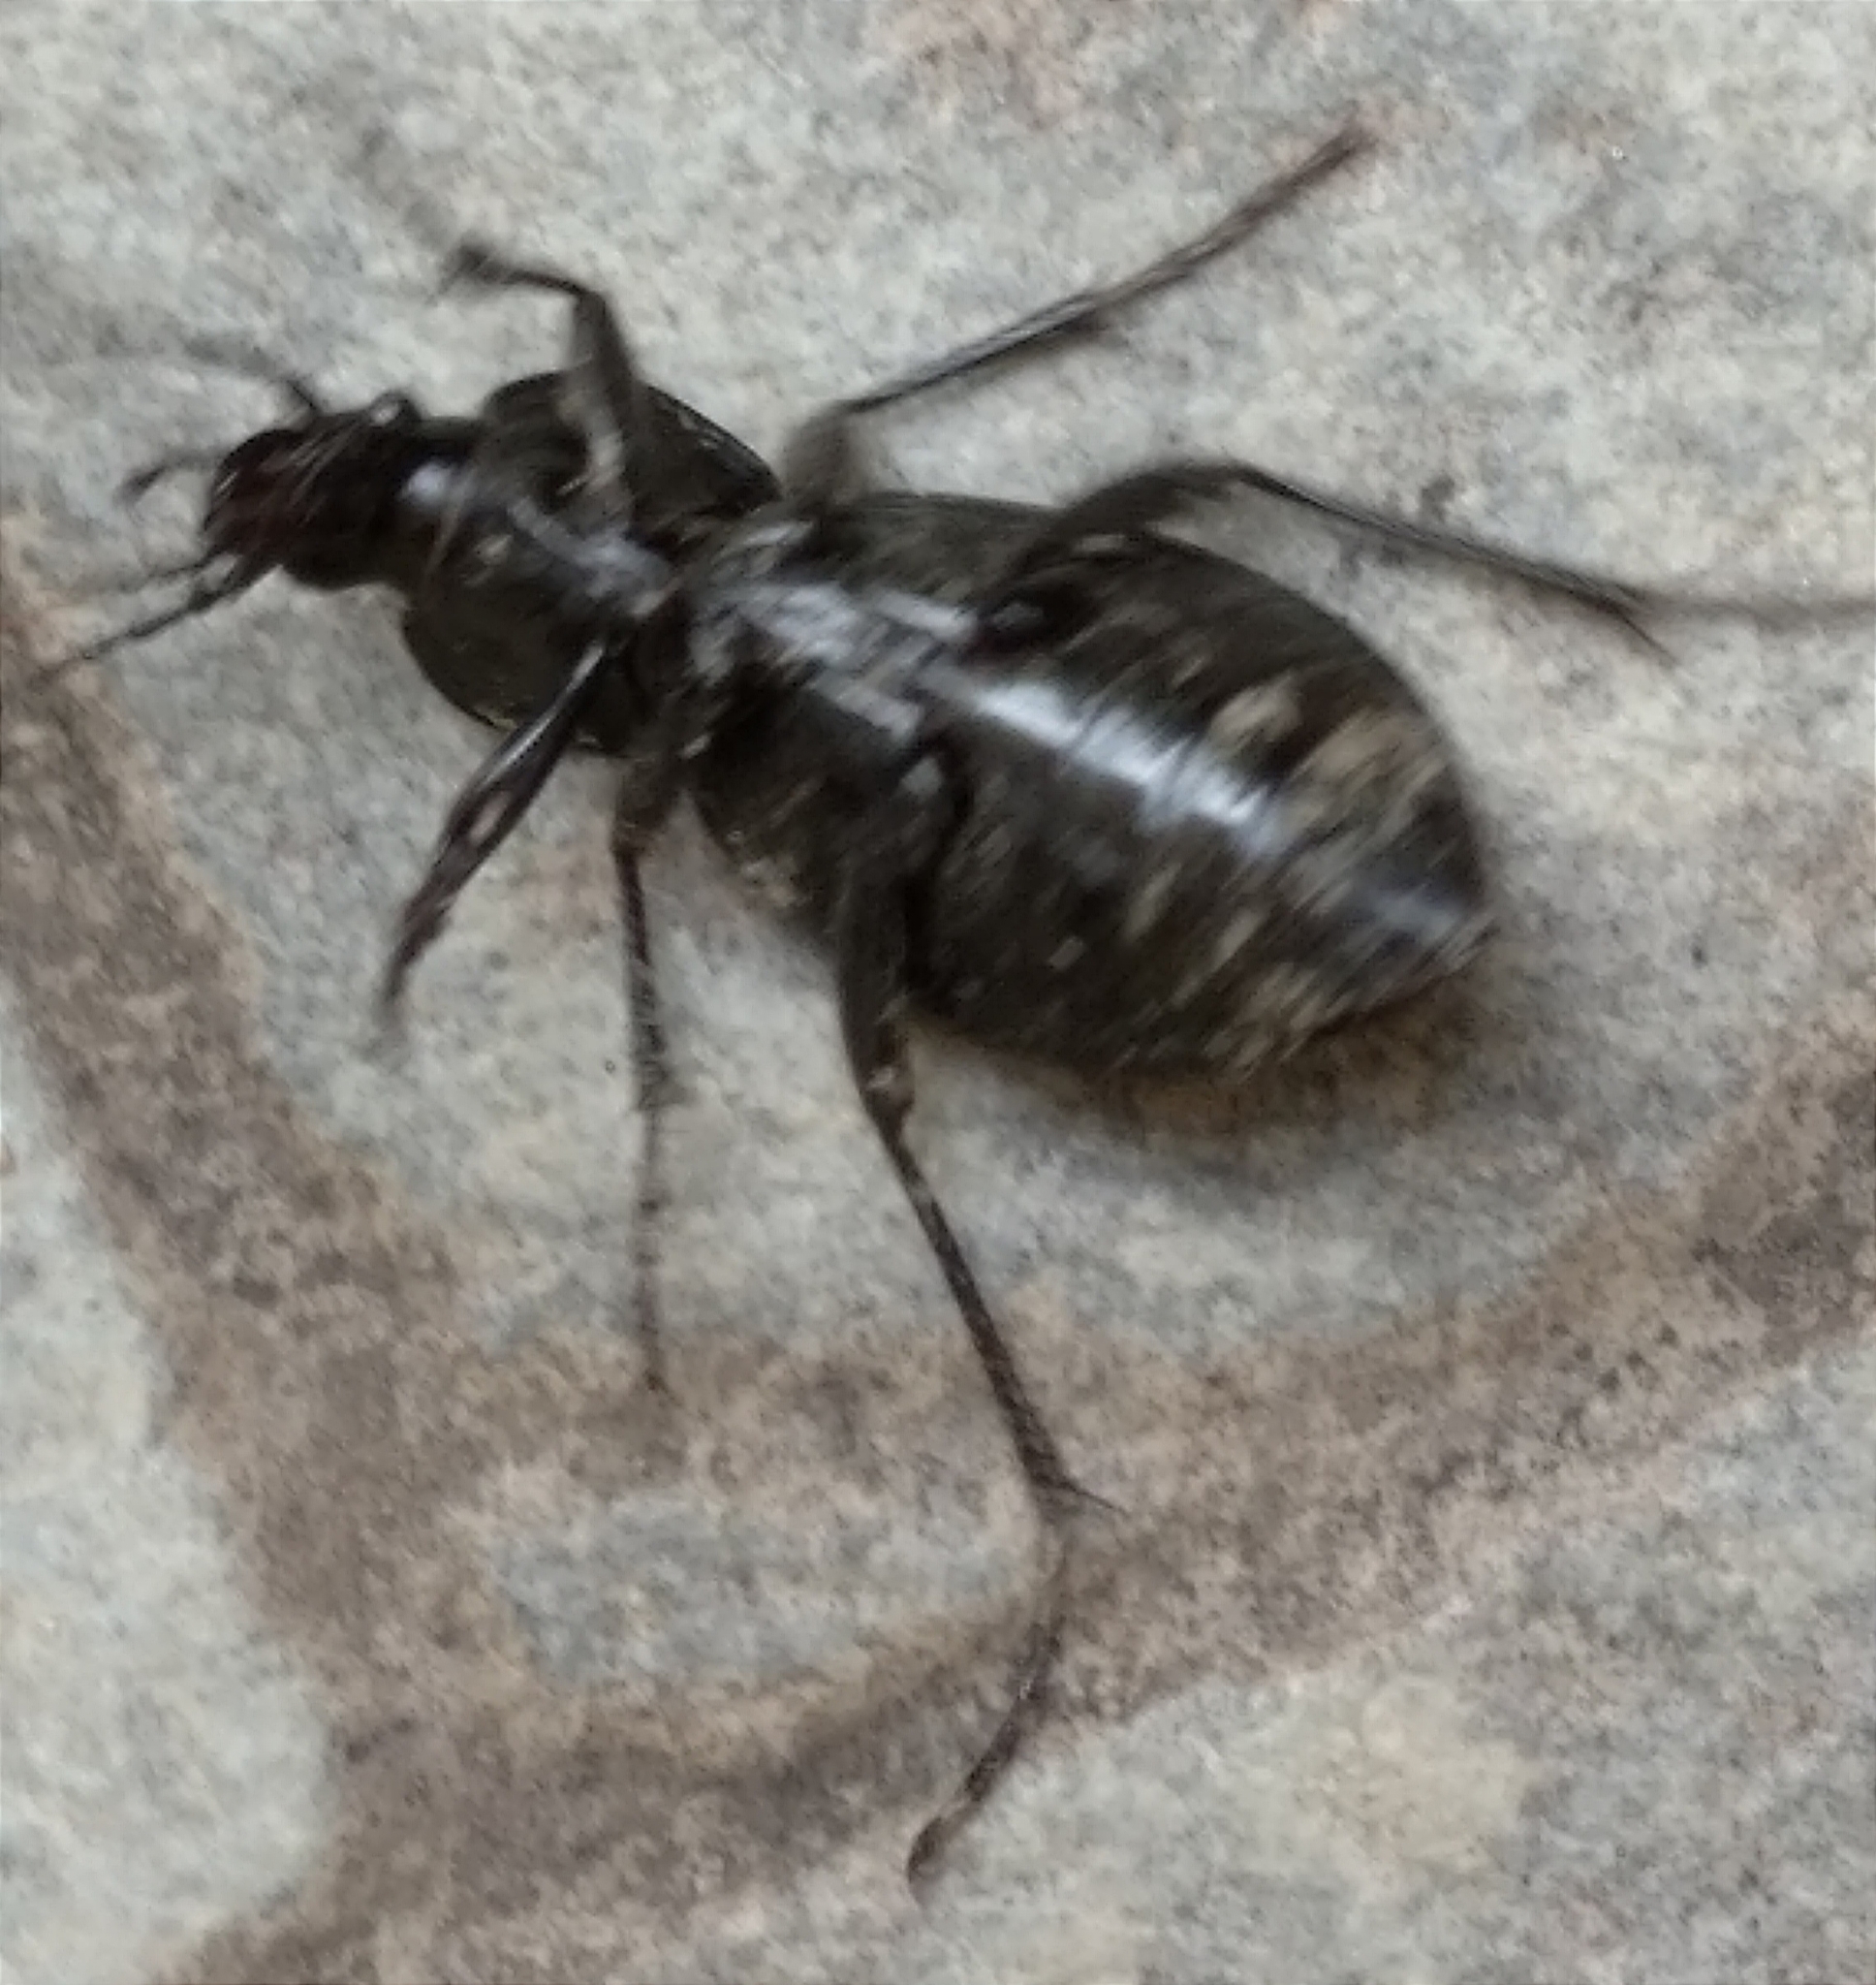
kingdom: Animalia
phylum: Arthropoda
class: Insecta
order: Coleoptera
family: Carabidae
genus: Carabus
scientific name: Carabus coriaceus
